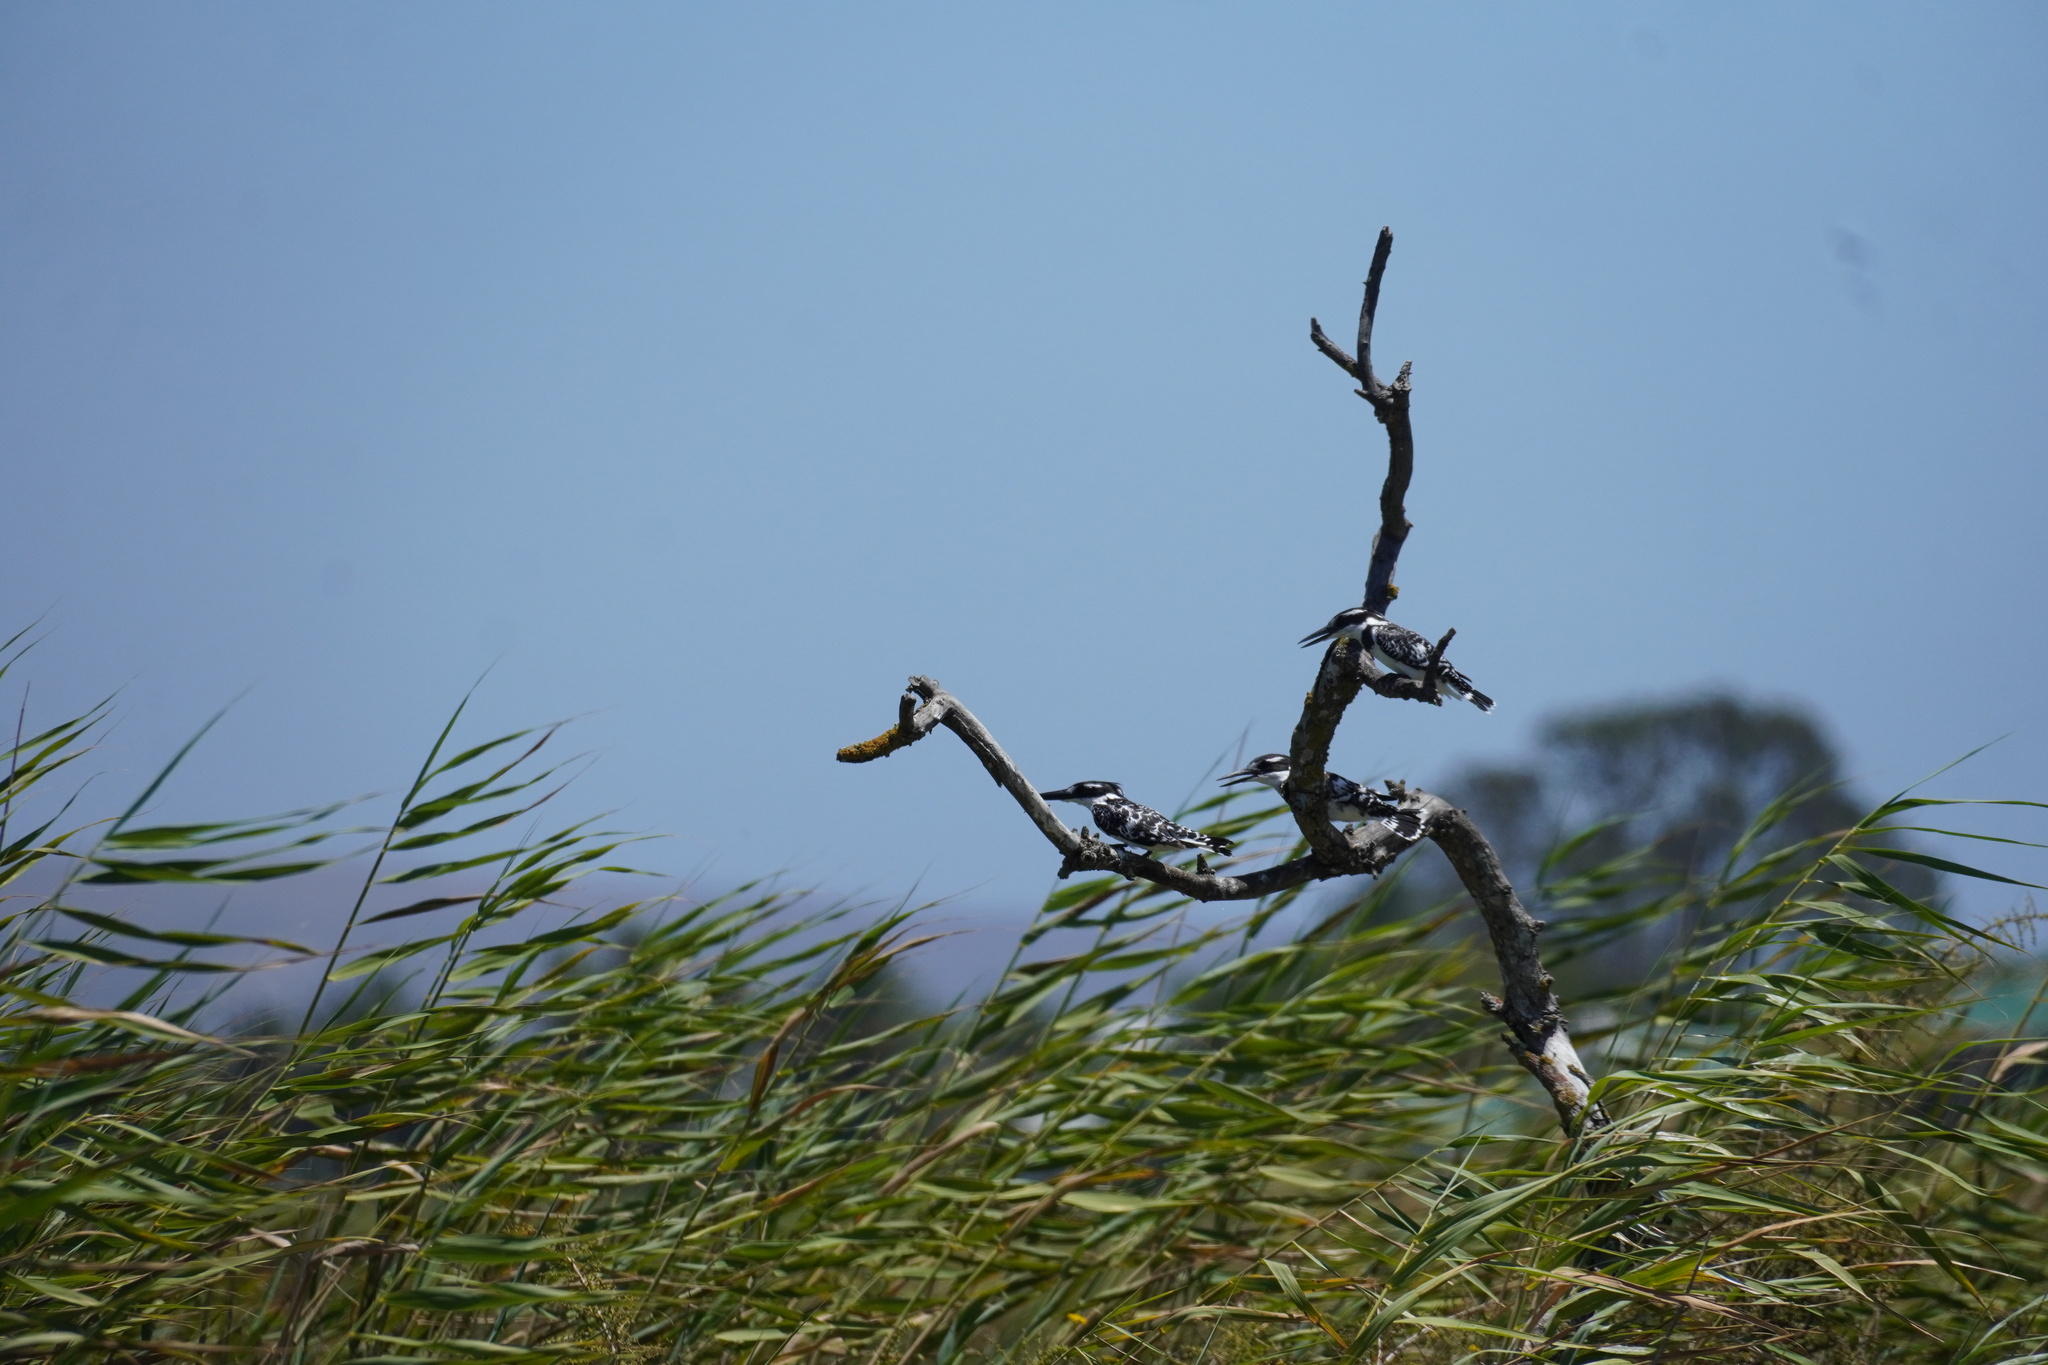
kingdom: Animalia
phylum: Chordata
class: Aves
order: Coraciiformes
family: Alcedinidae
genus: Ceryle
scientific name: Ceryle rudis
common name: Pied kingfisher
